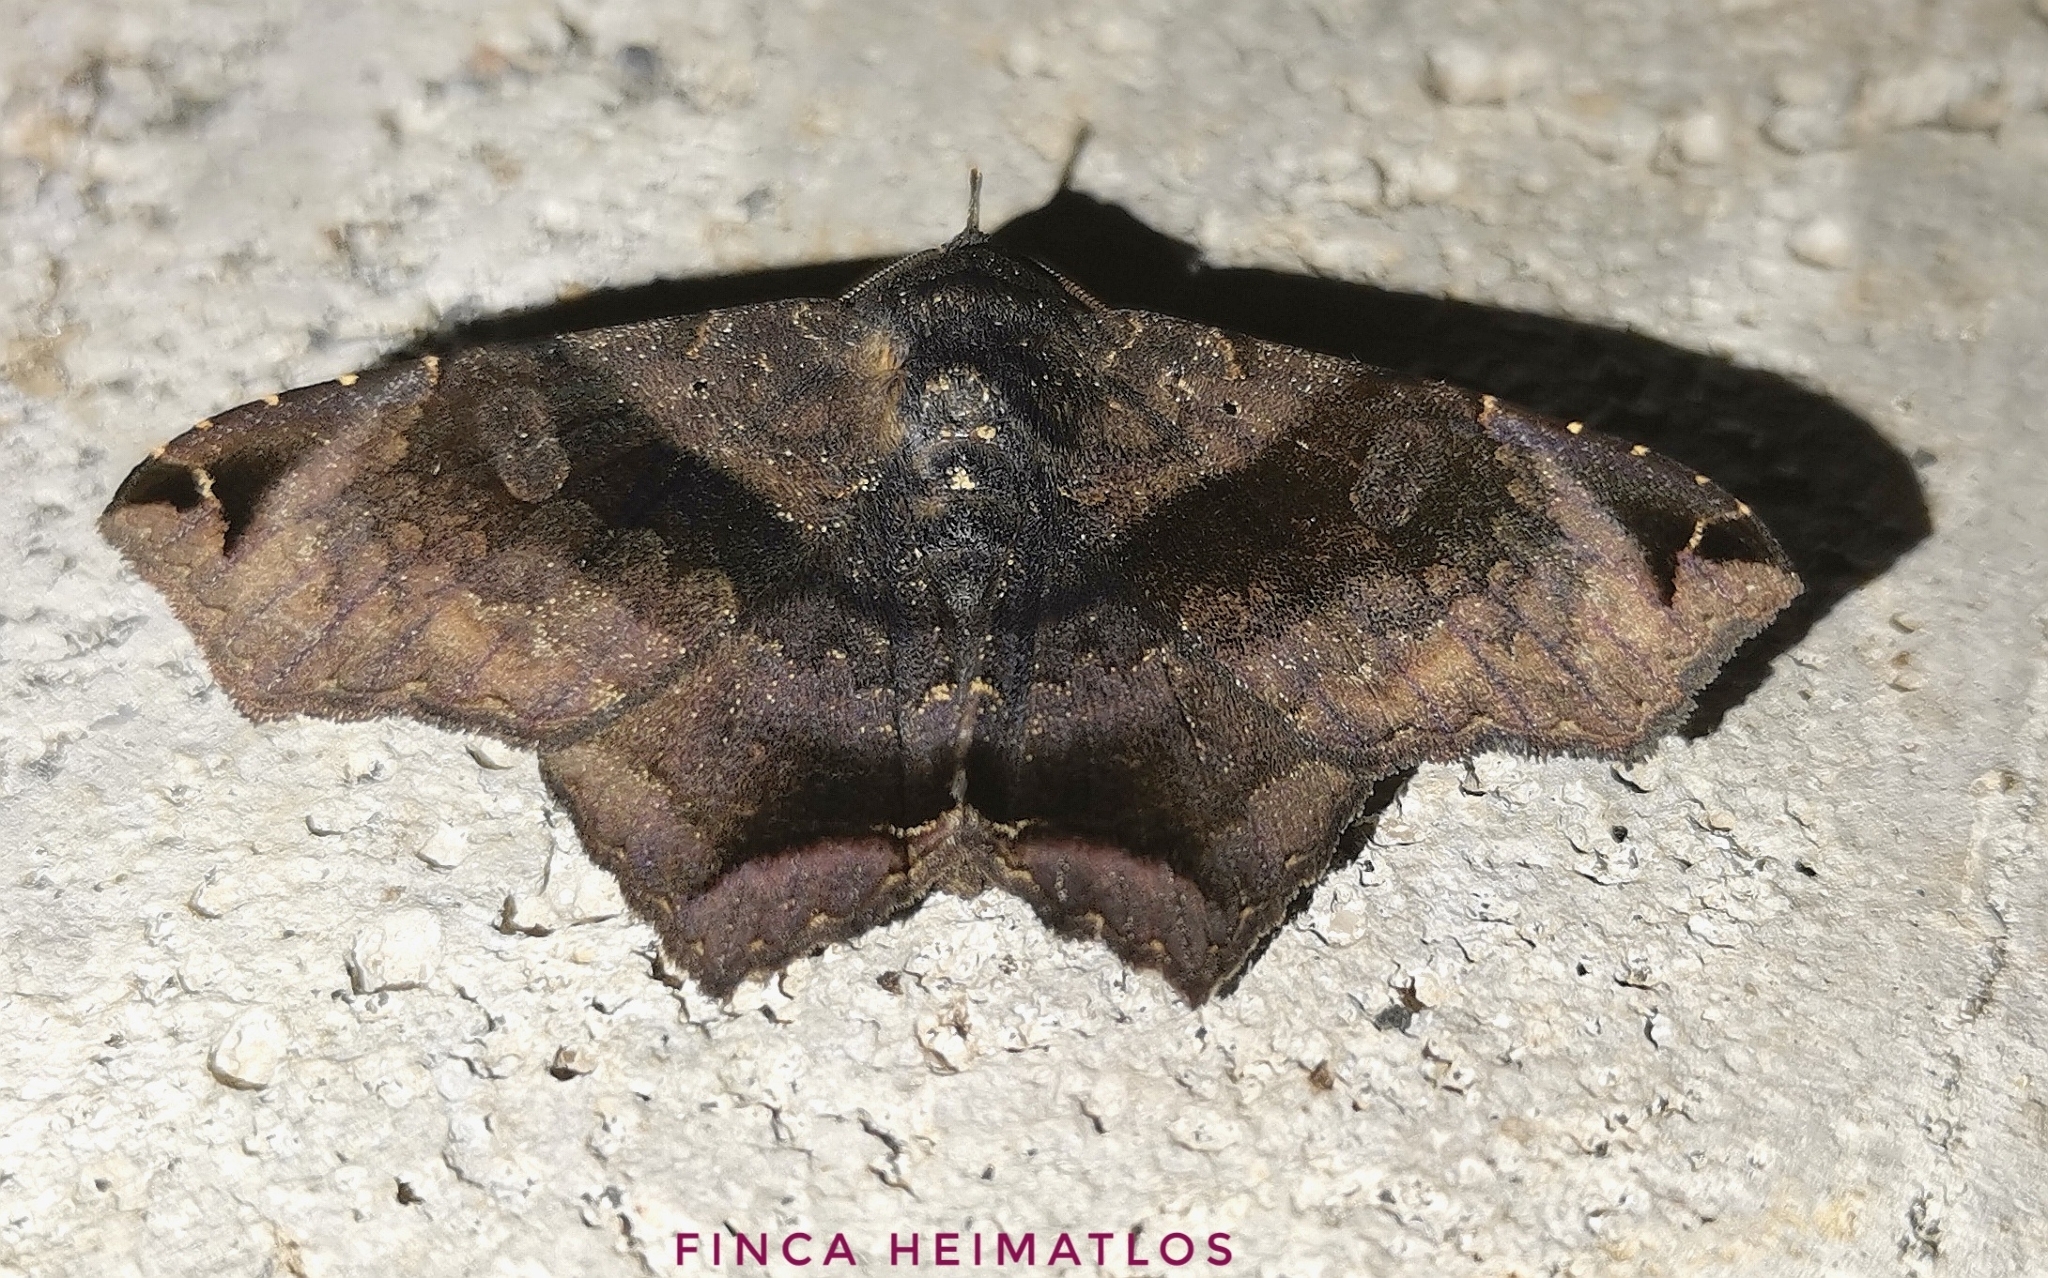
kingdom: Animalia
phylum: Arthropoda
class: Insecta
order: Lepidoptera
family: Erebidae
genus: Euclystis
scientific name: Euclystis manto
